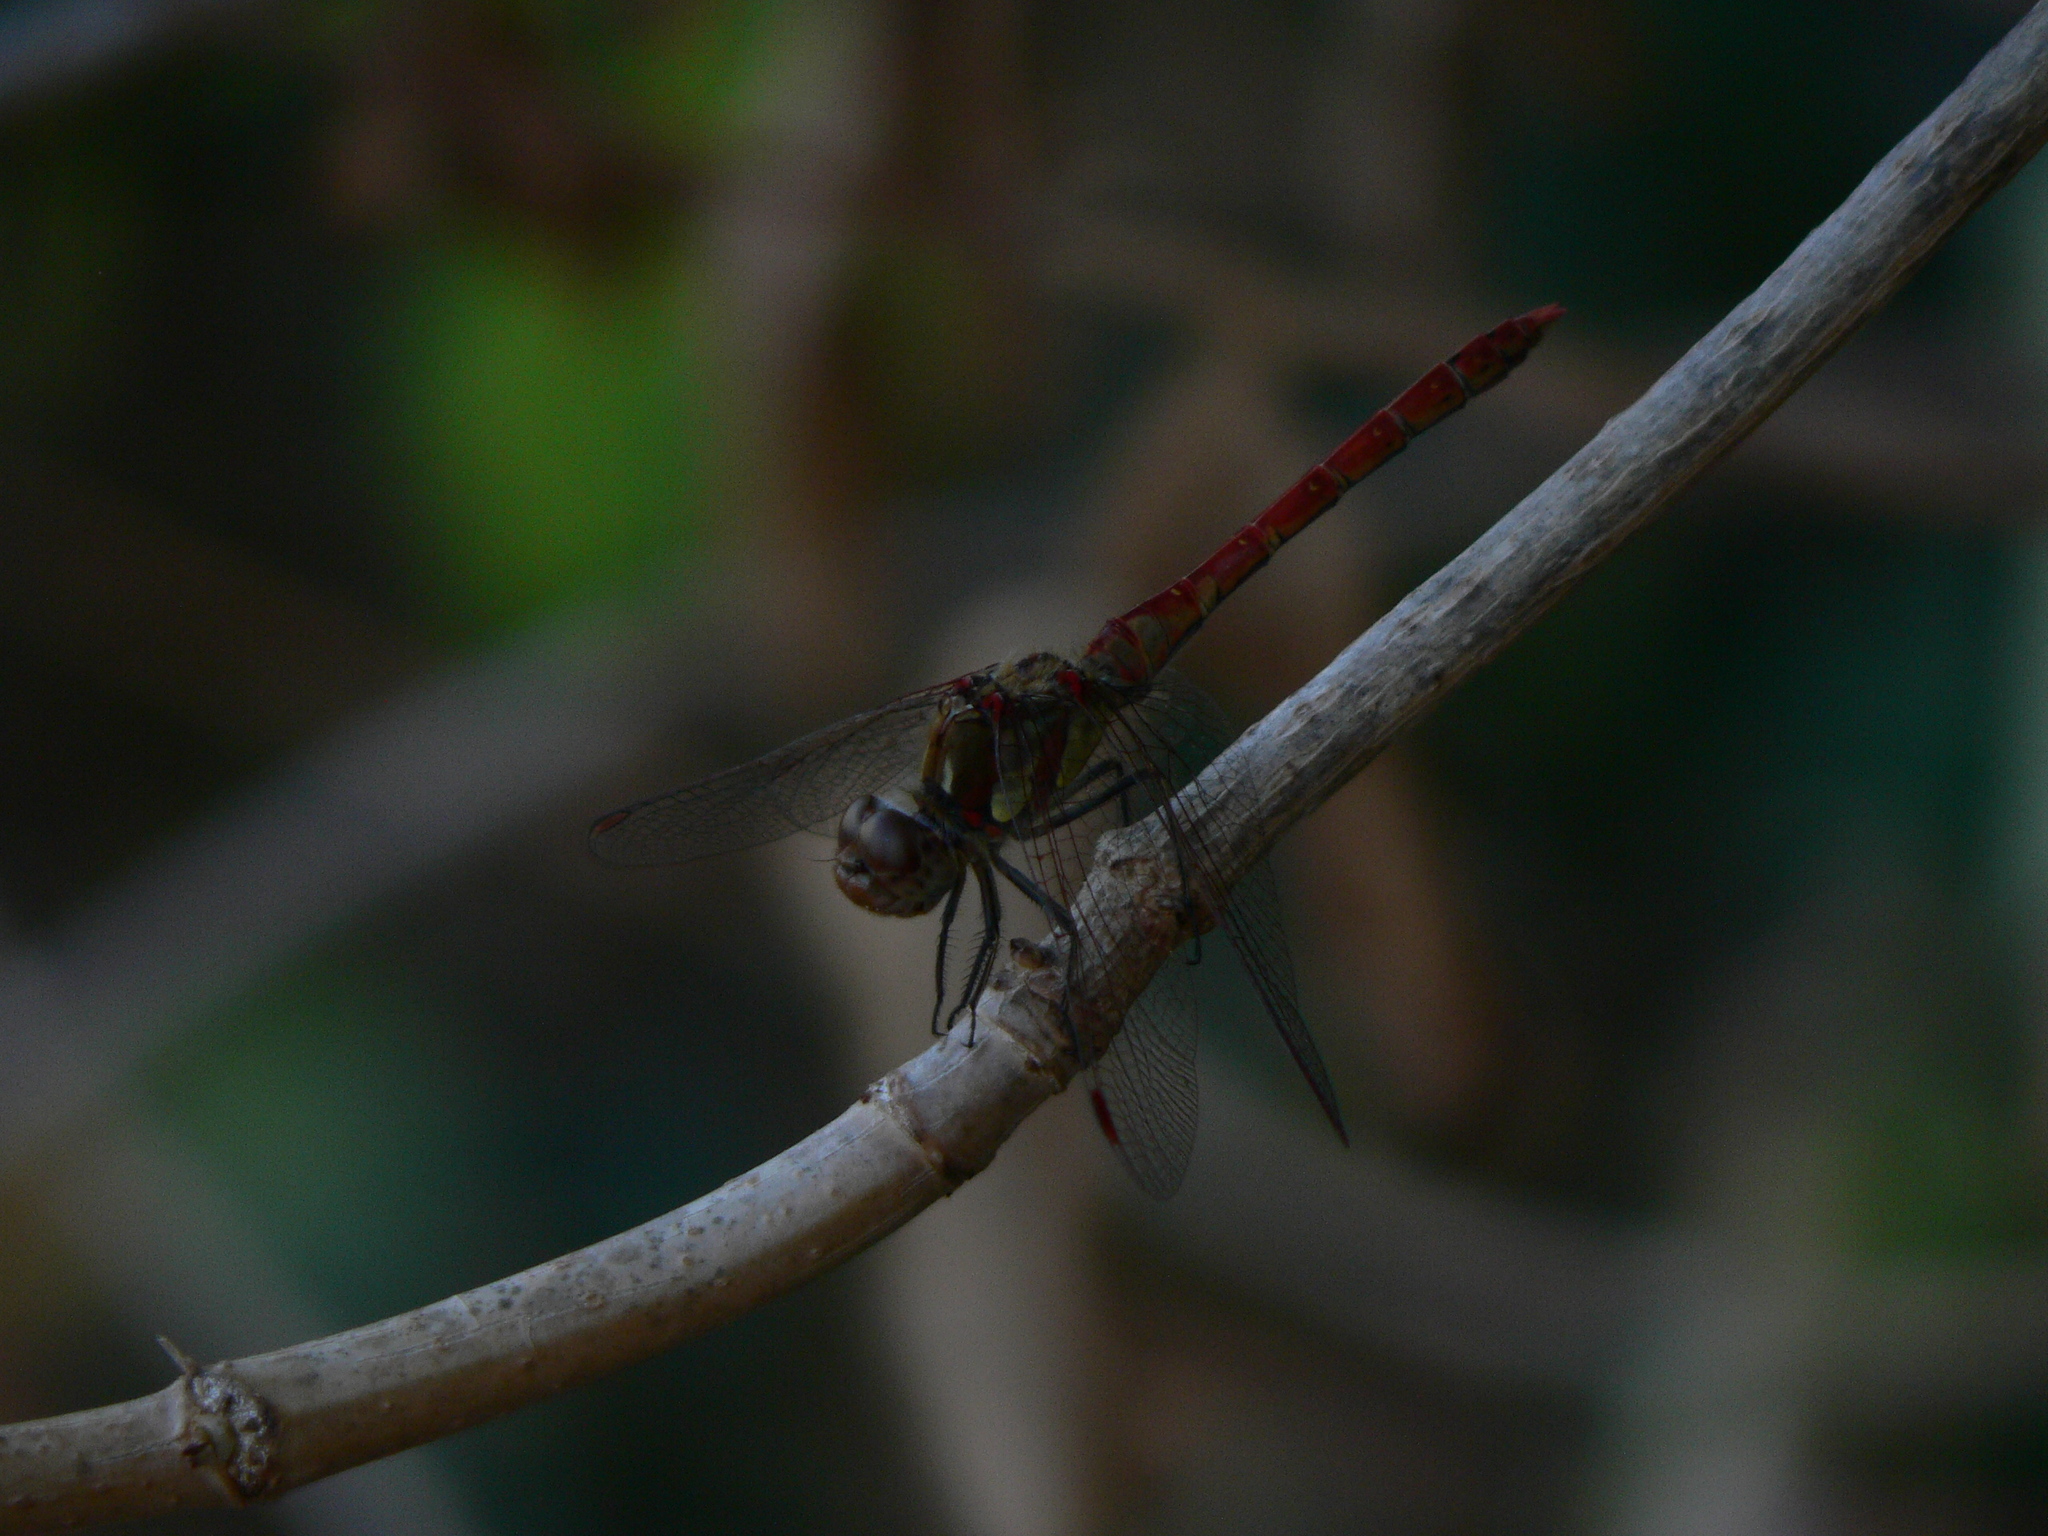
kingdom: Animalia
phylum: Arthropoda
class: Insecta
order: Odonata
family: Libellulidae
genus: Sympetrum
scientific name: Sympetrum striolatum
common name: Common darter
